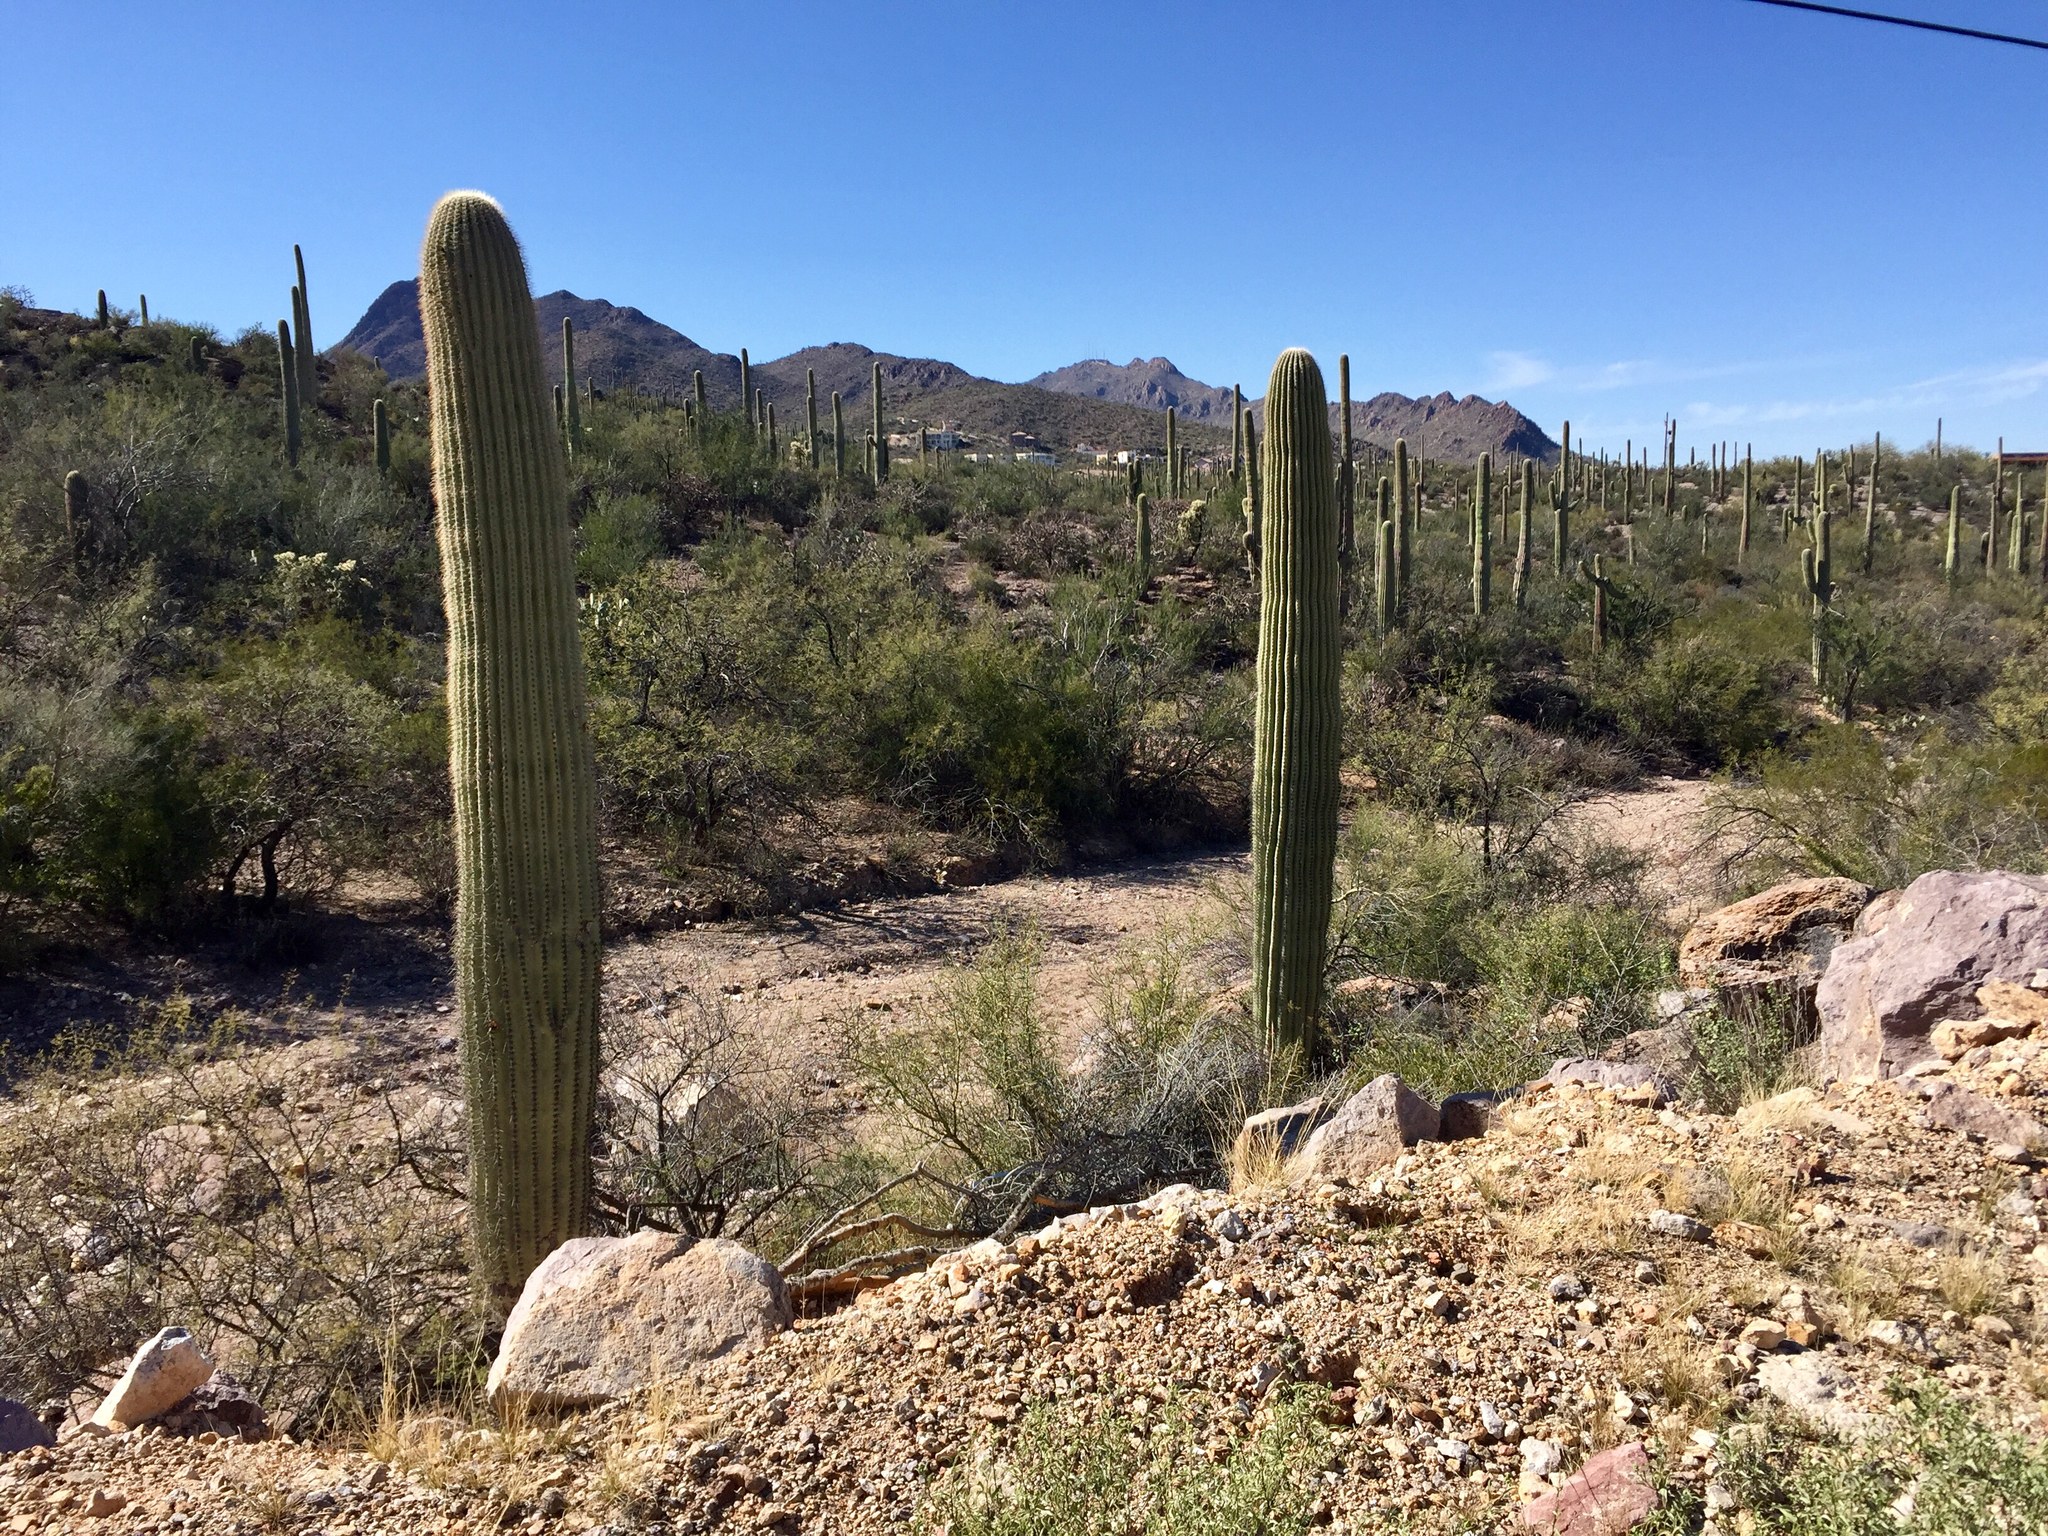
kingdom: Plantae
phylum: Tracheophyta
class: Magnoliopsida
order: Caryophyllales
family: Cactaceae
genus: Carnegiea
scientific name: Carnegiea gigantea
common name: Saguaro
